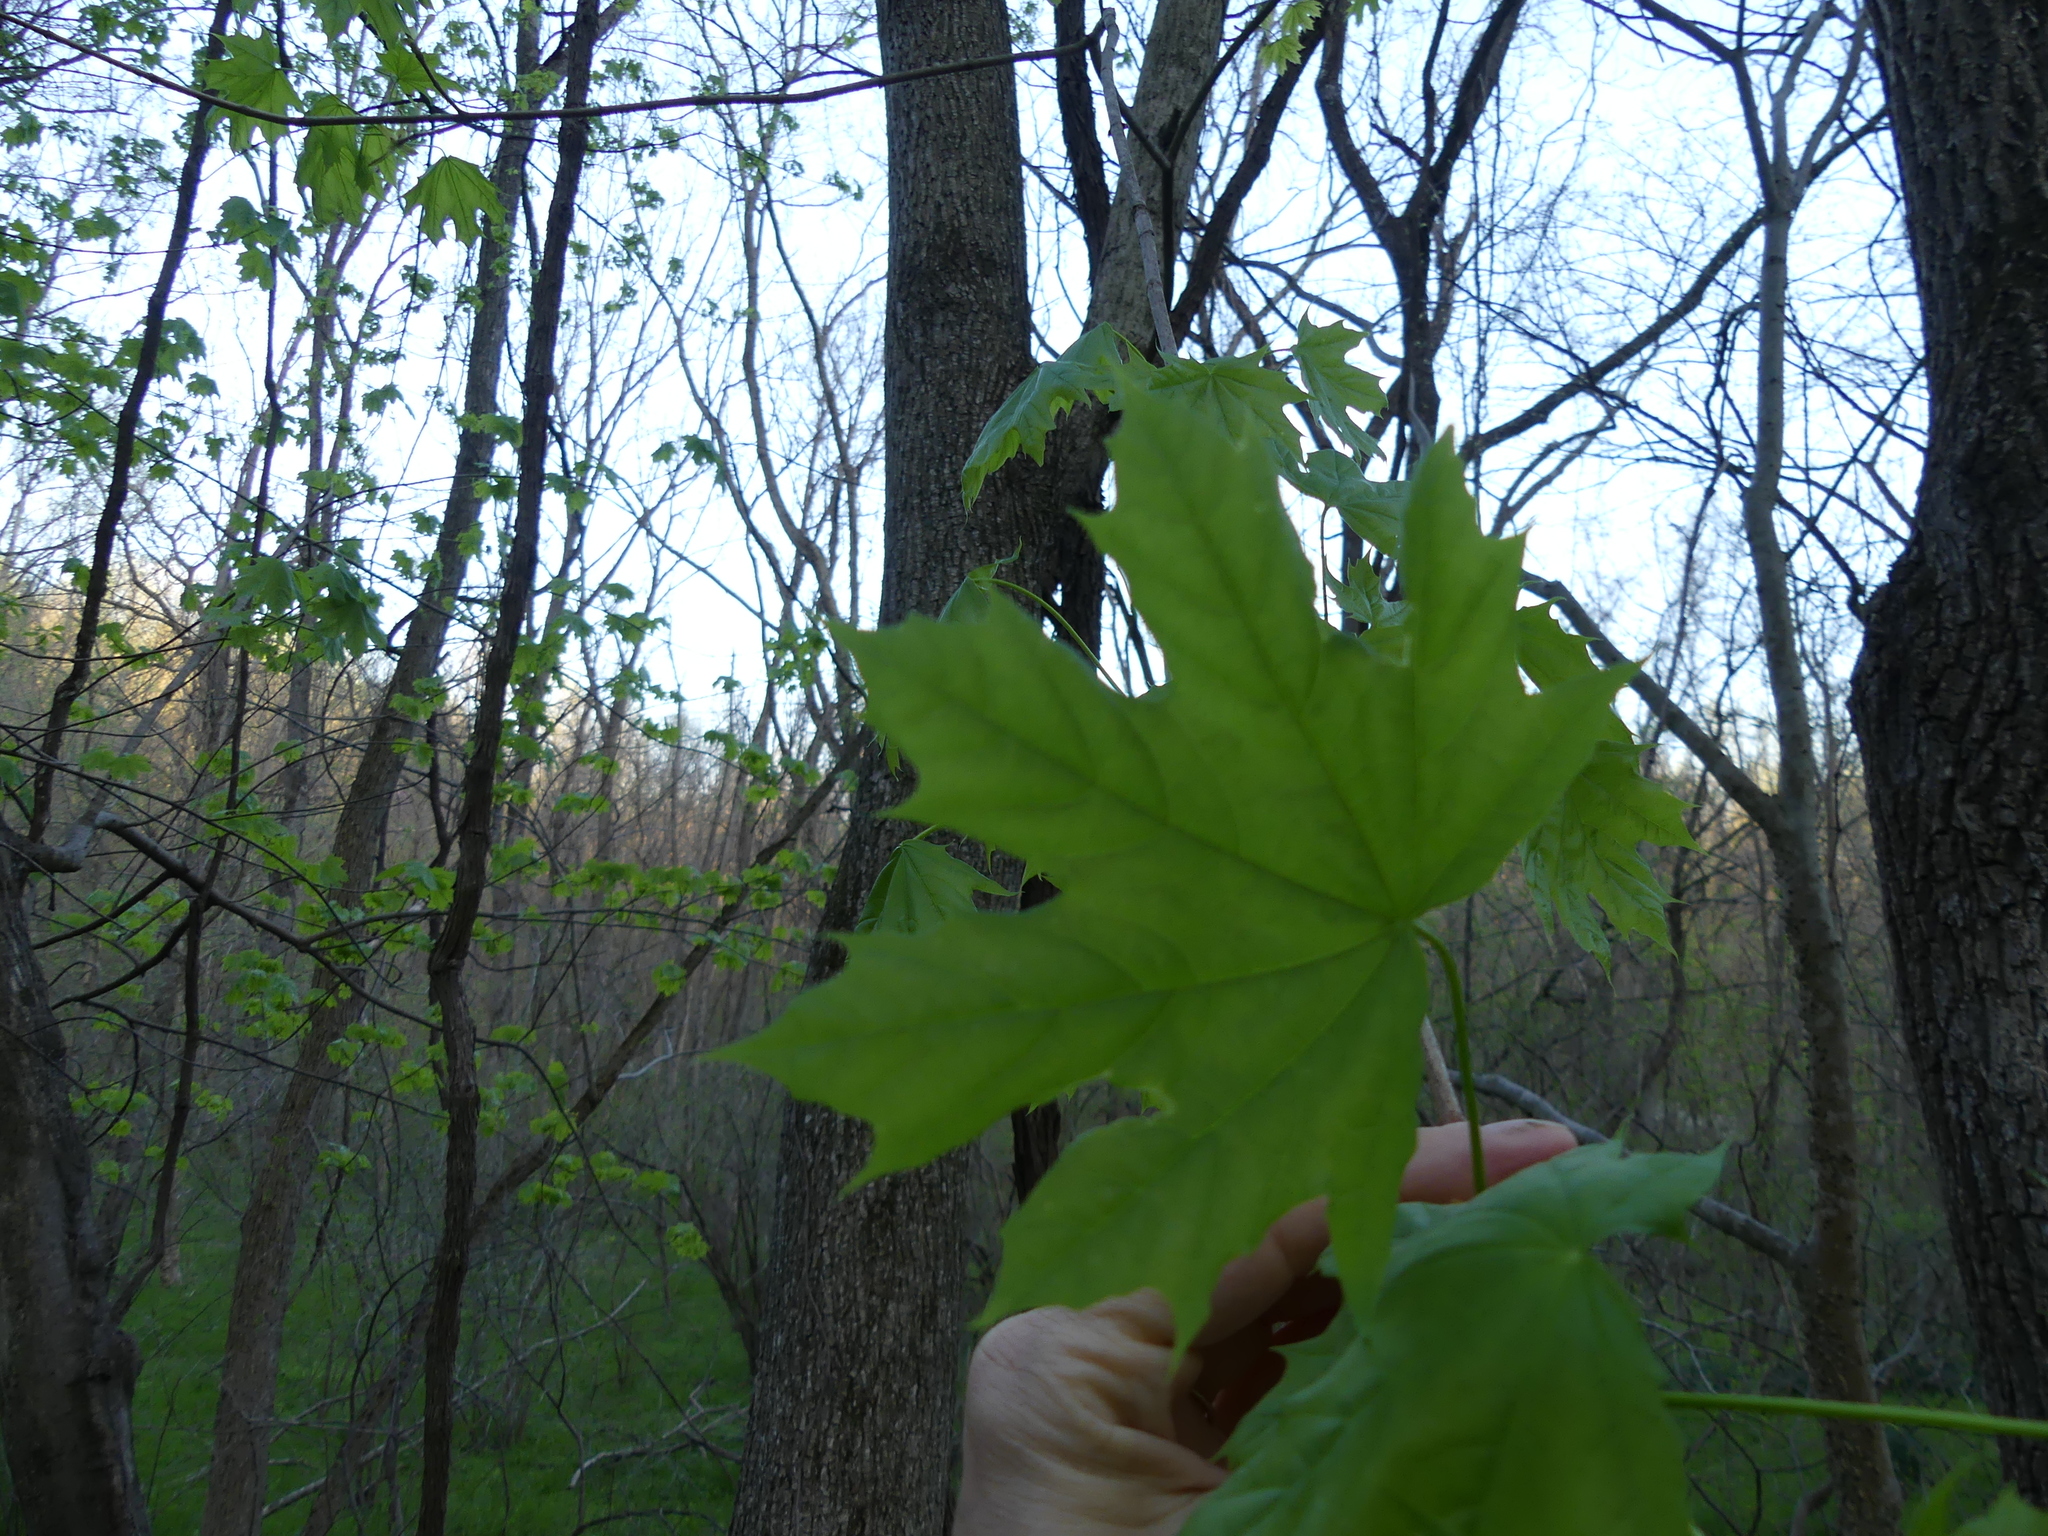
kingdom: Plantae
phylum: Tracheophyta
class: Magnoliopsida
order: Sapindales
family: Sapindaceae
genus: Acer
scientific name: Acer saccharum
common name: Sugar maple
